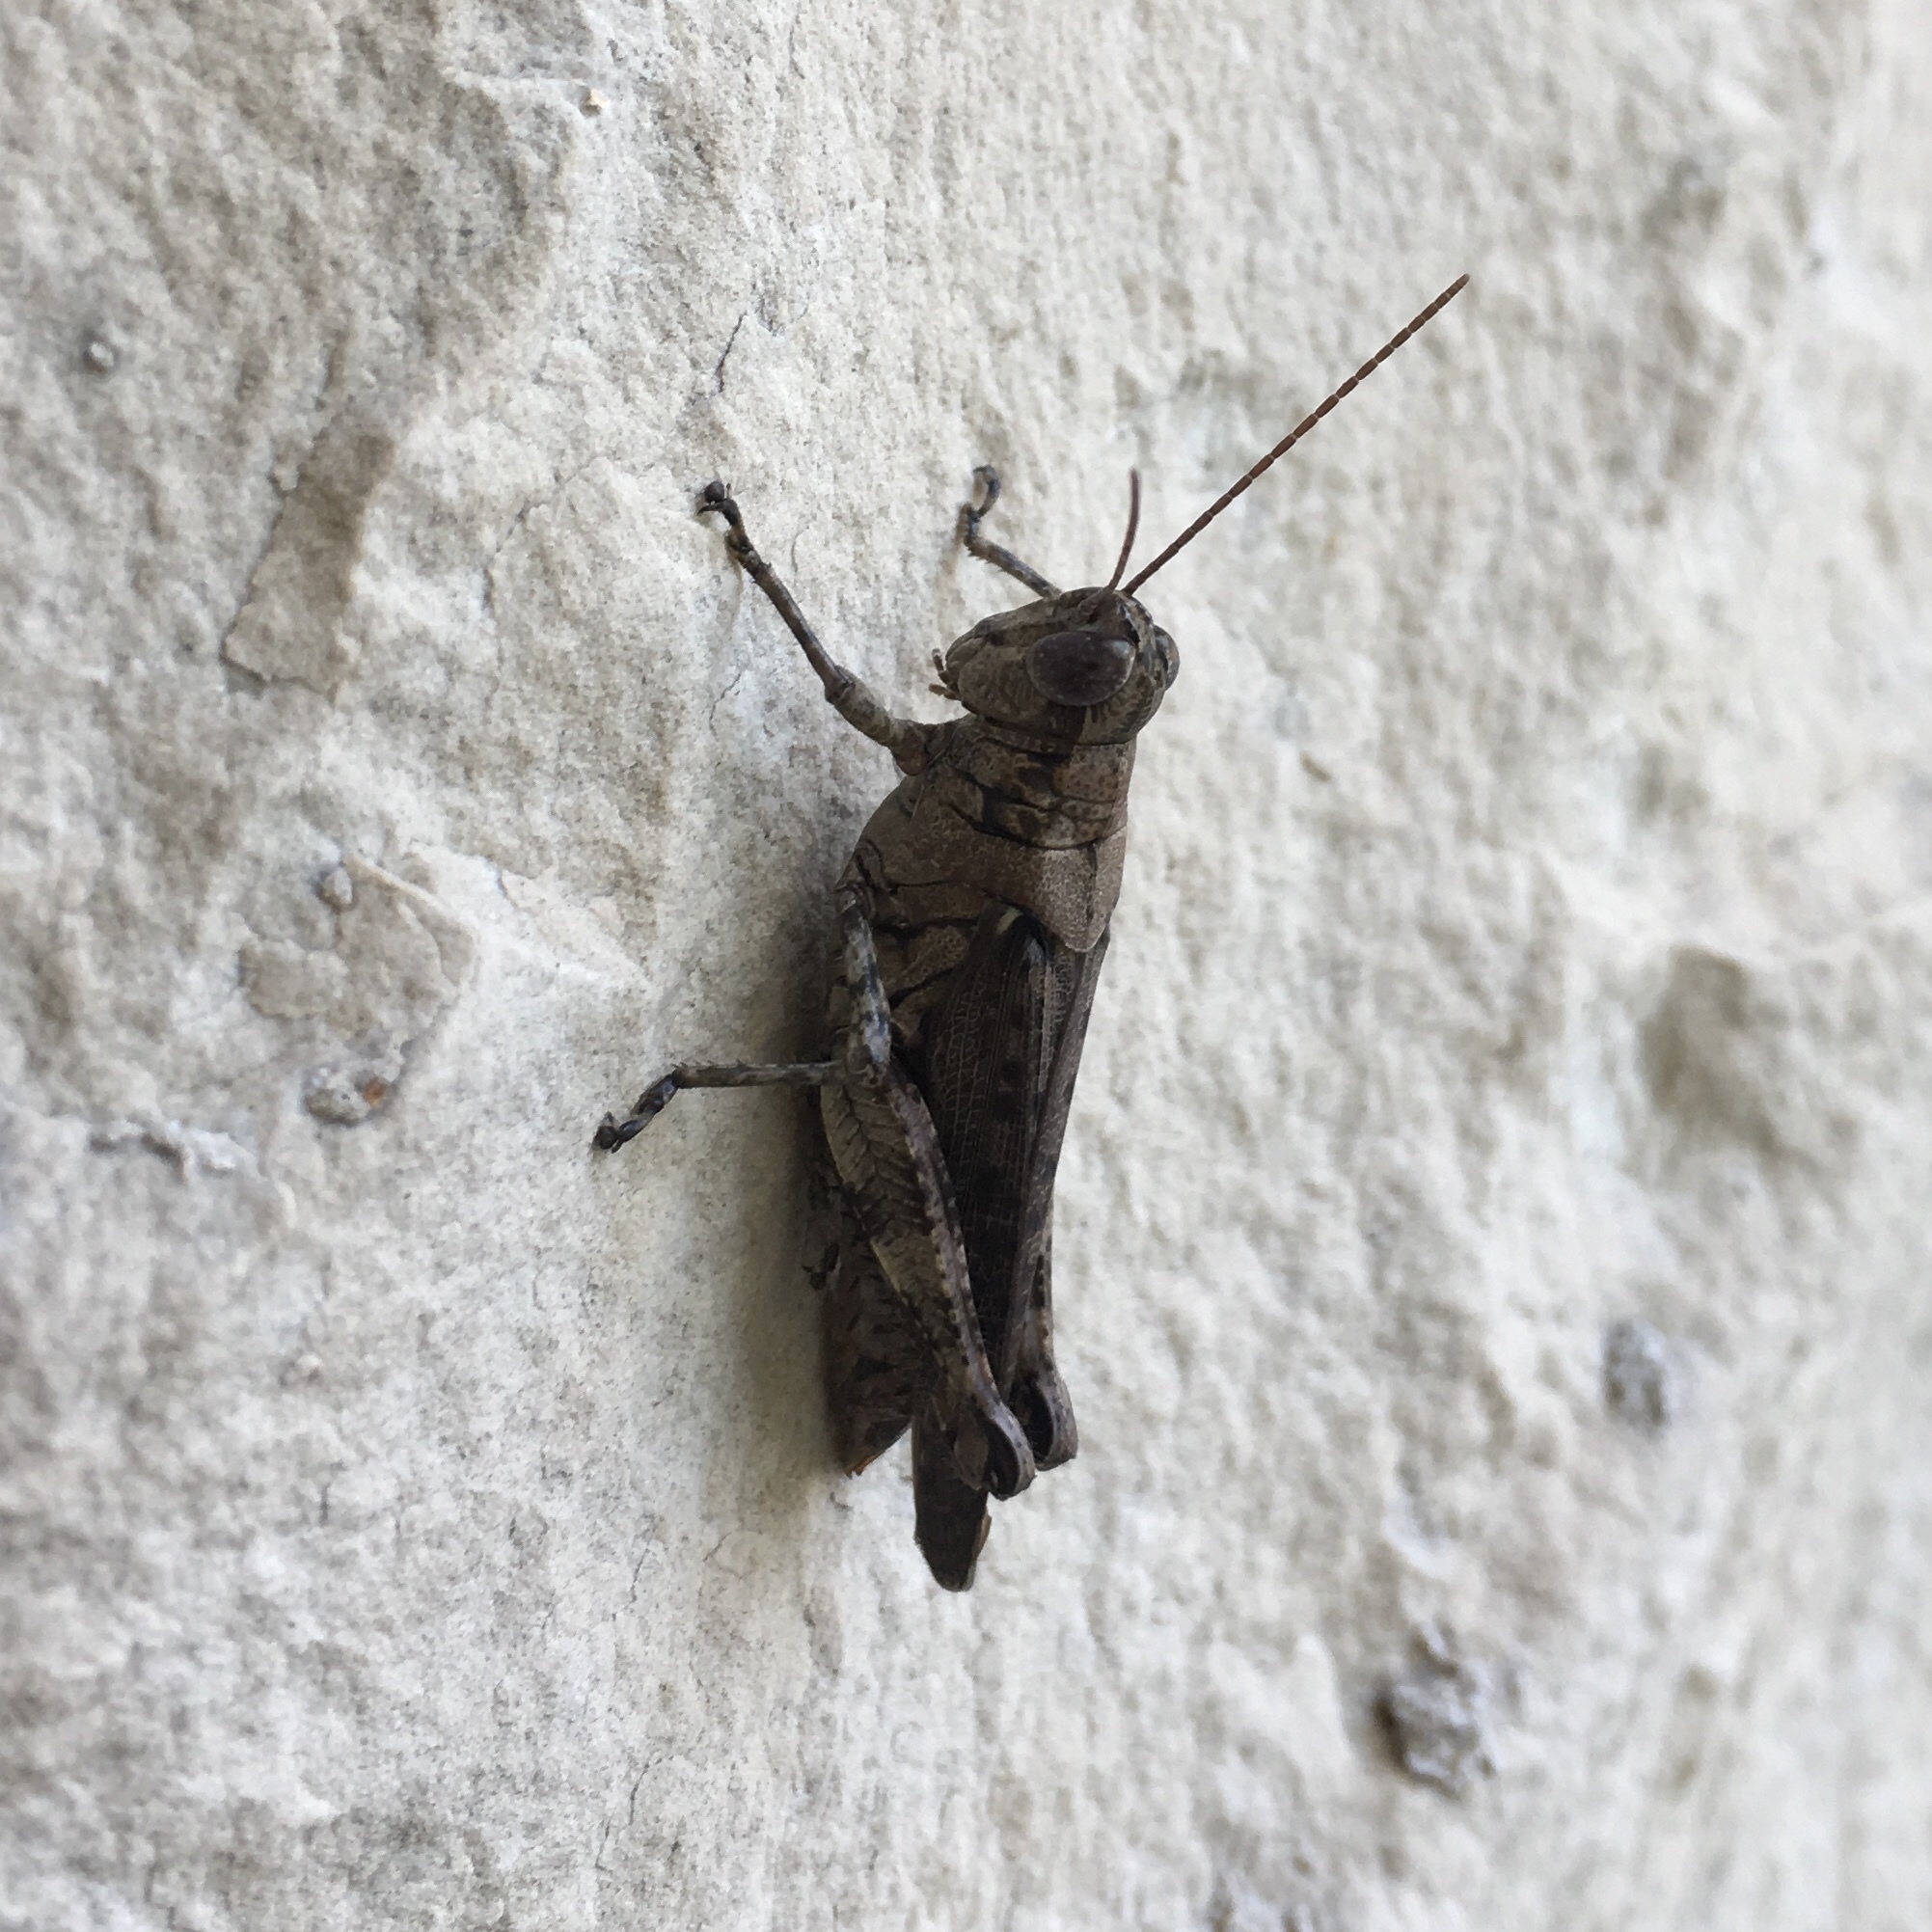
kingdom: Animalia
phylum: Arthropoda
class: Insecta
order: Orthoptera
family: Acrididae
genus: Melanoplus
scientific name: Melanoplus punctulatus
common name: Pine-tree spur-throat grasshopper
